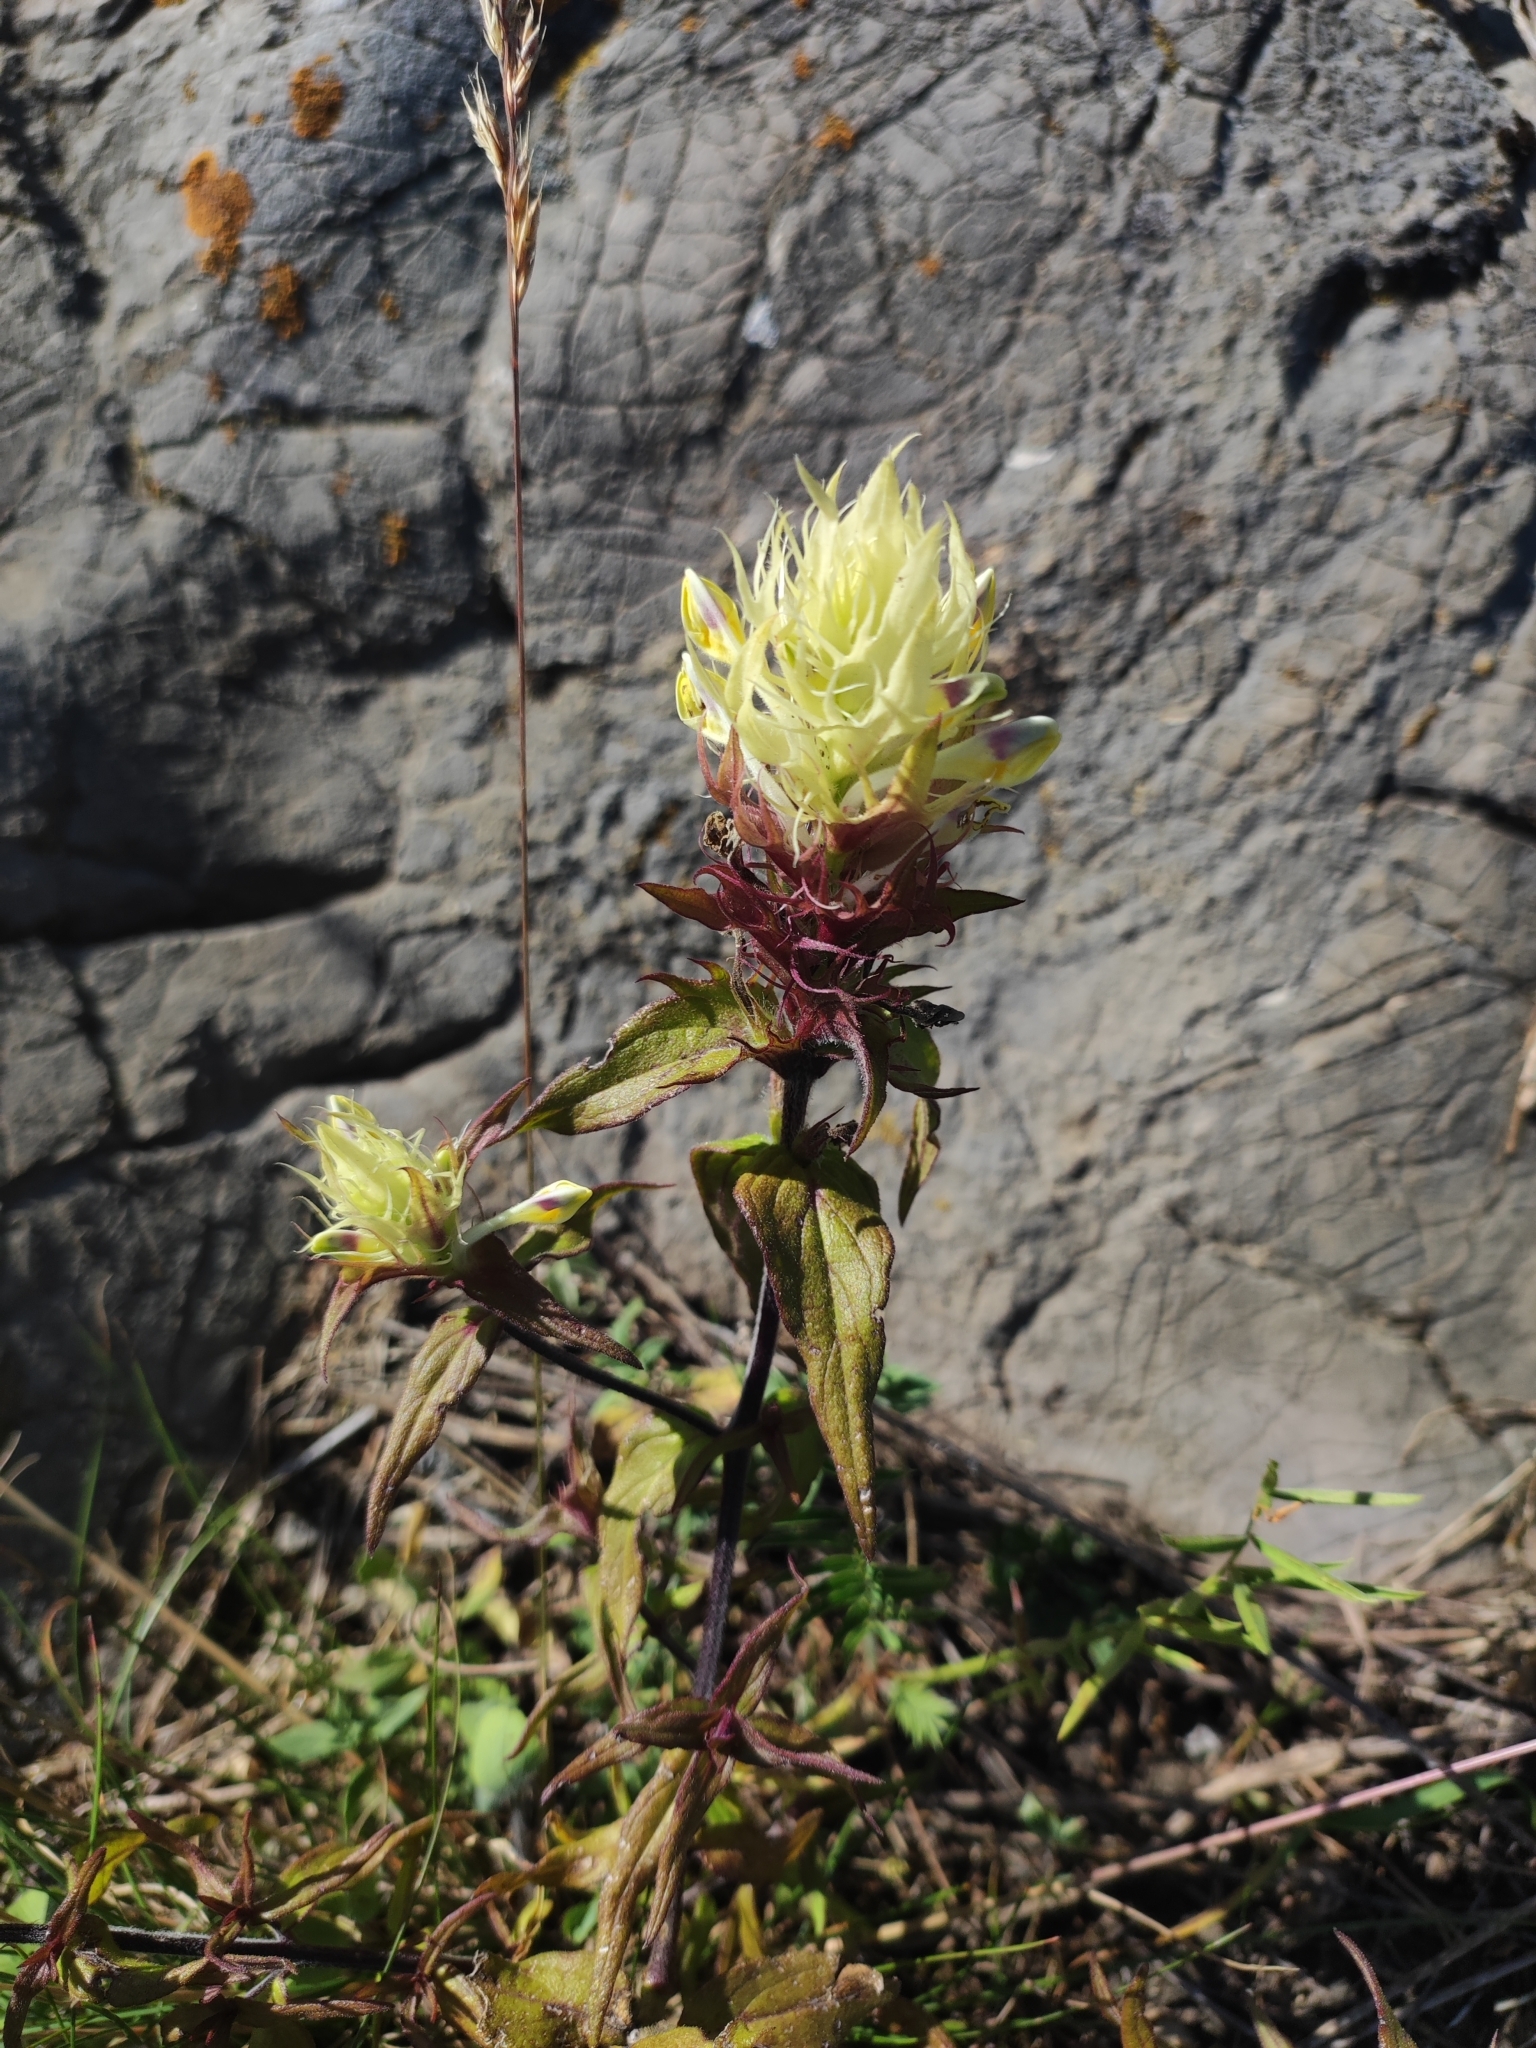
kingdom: Plantae
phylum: Tracheophyta
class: Magnoliopsida
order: Lamiales
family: Orobanchaceae
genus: Melampyrum
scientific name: Melampyrum arvense
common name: Field cow-wheat
